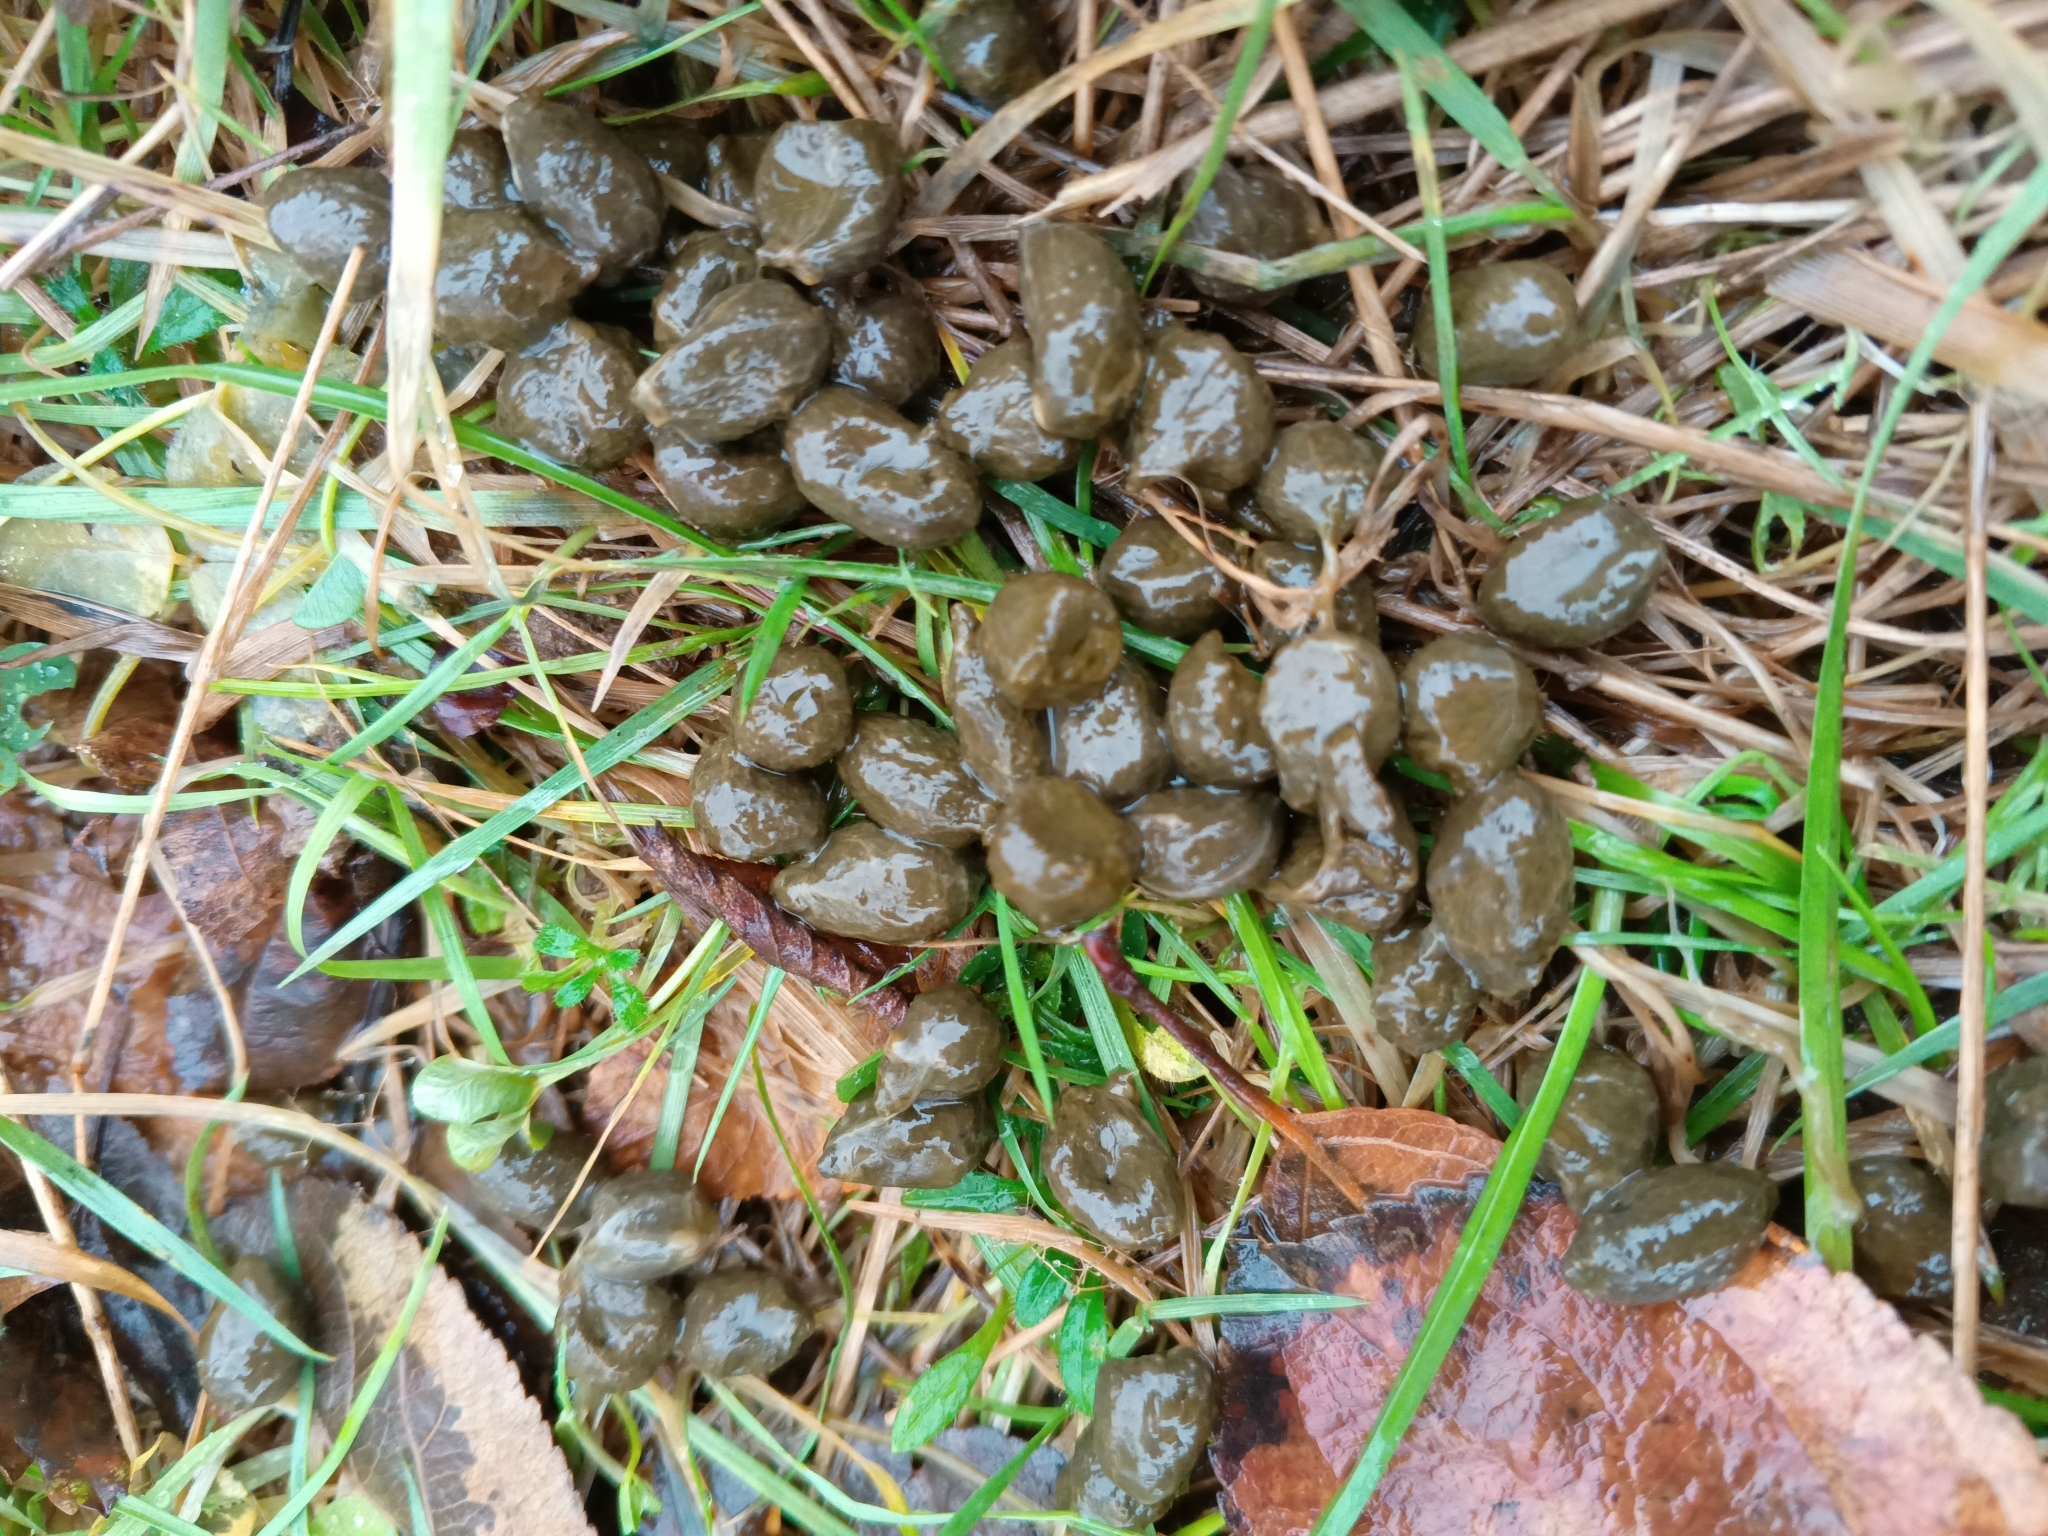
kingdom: Animalia
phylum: Chordata
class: Mammalia
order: Artiodactyla
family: Cervidae
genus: Capreolus
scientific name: Capreolus capreolus
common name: Western roe deer
